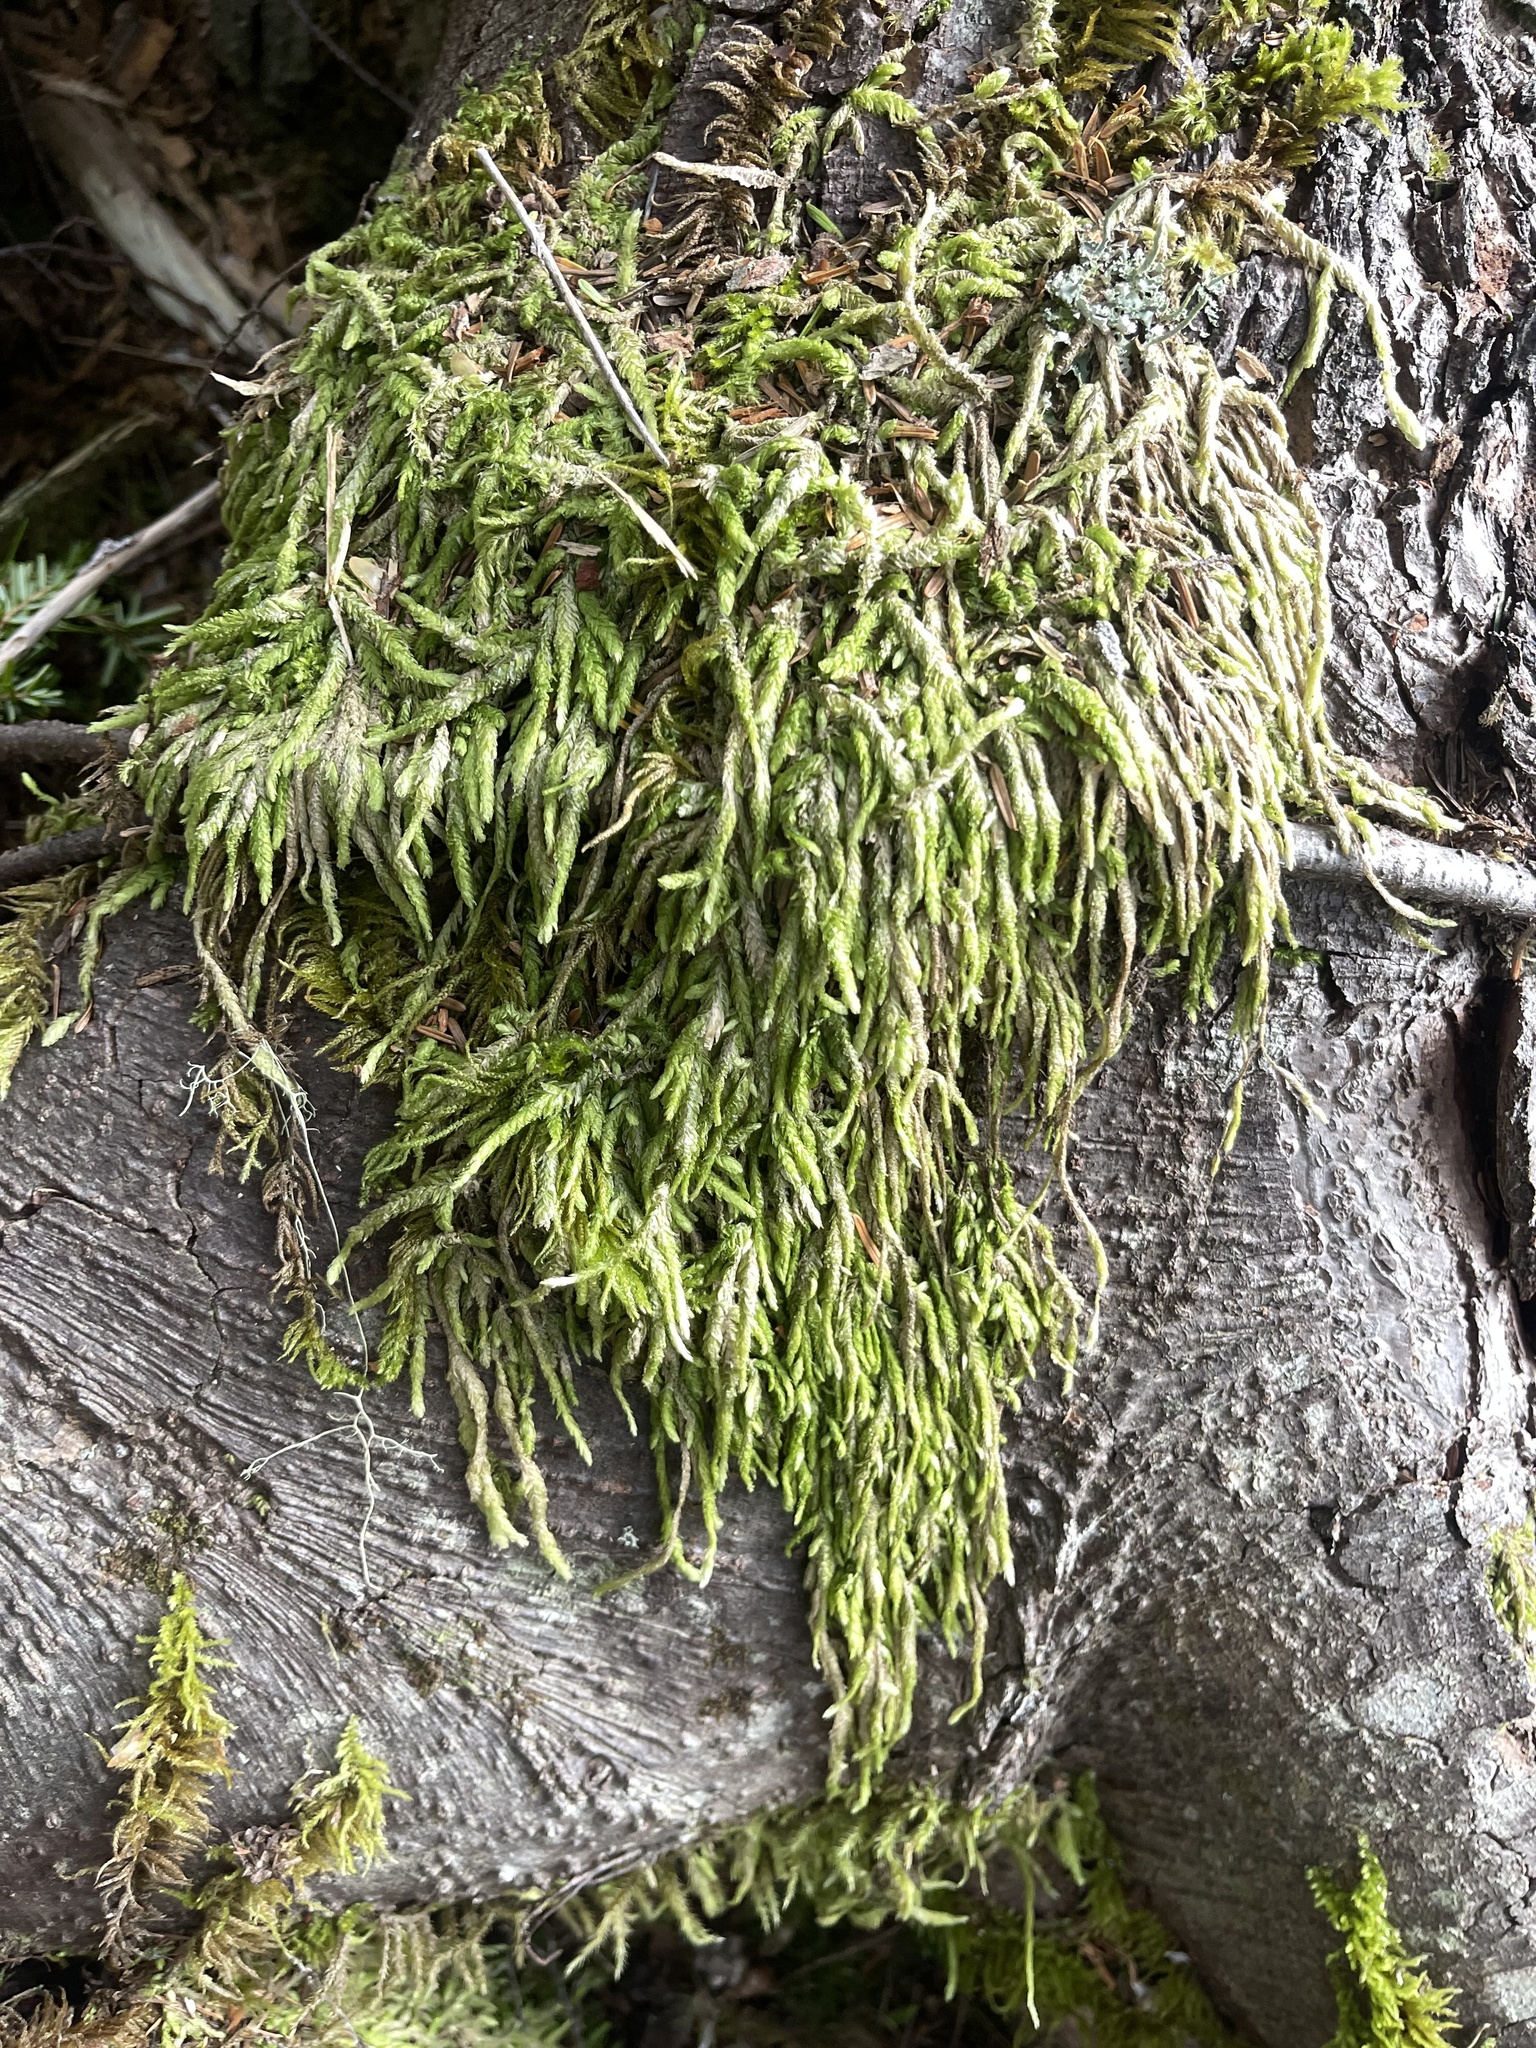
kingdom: Plantae
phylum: Bryophyta
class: Bryopsida
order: Hypnales
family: Plagiotheciaceae
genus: Plagiothecium
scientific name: Plagiothecium undulatum
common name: Waved silk-moss
